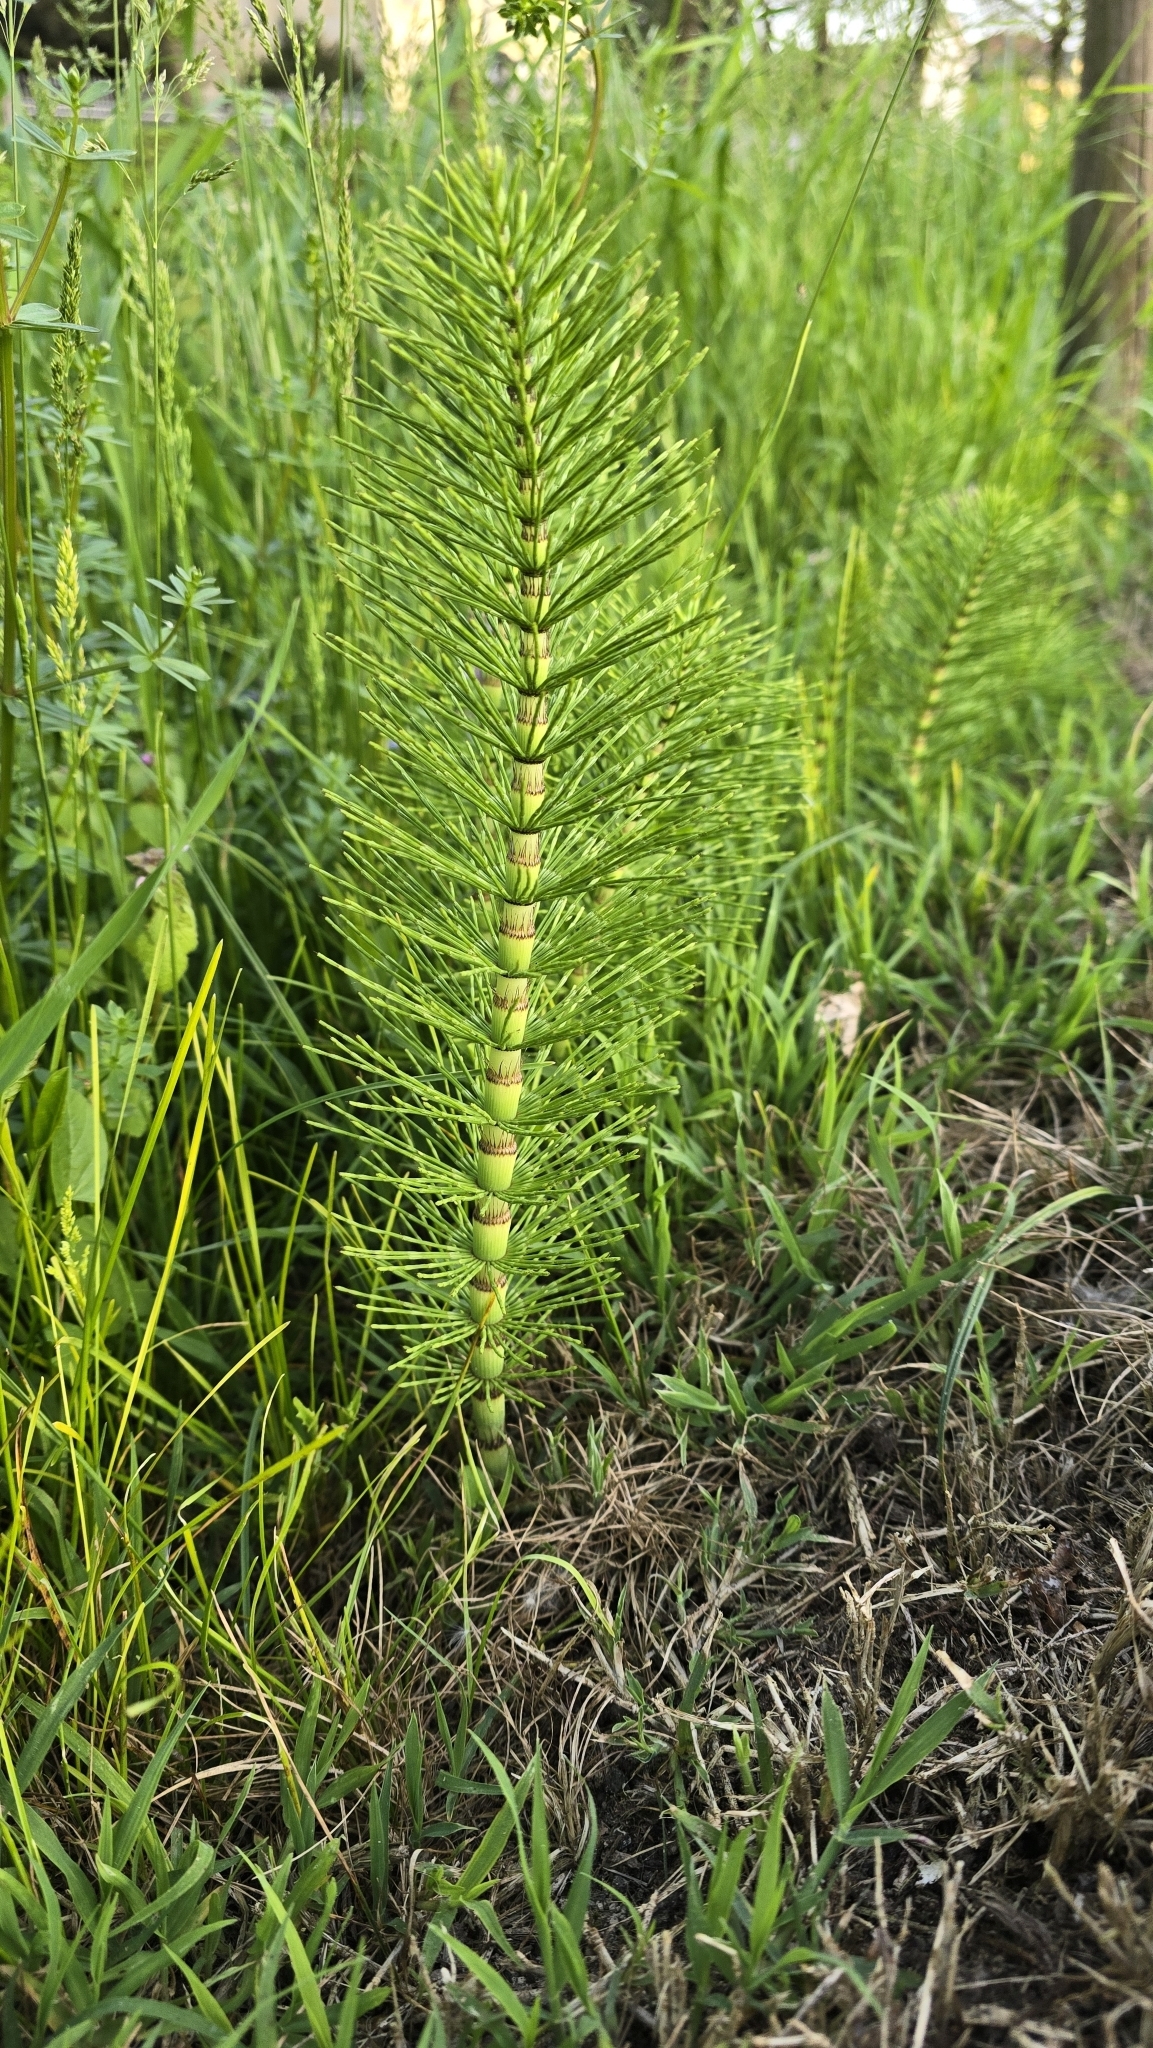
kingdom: Plantae
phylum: Tracheophyta
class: Polypodiopsida
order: Equisetales
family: Equisetaceae
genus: Equisetum
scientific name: Equisetum telmateia
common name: Great horsetail
